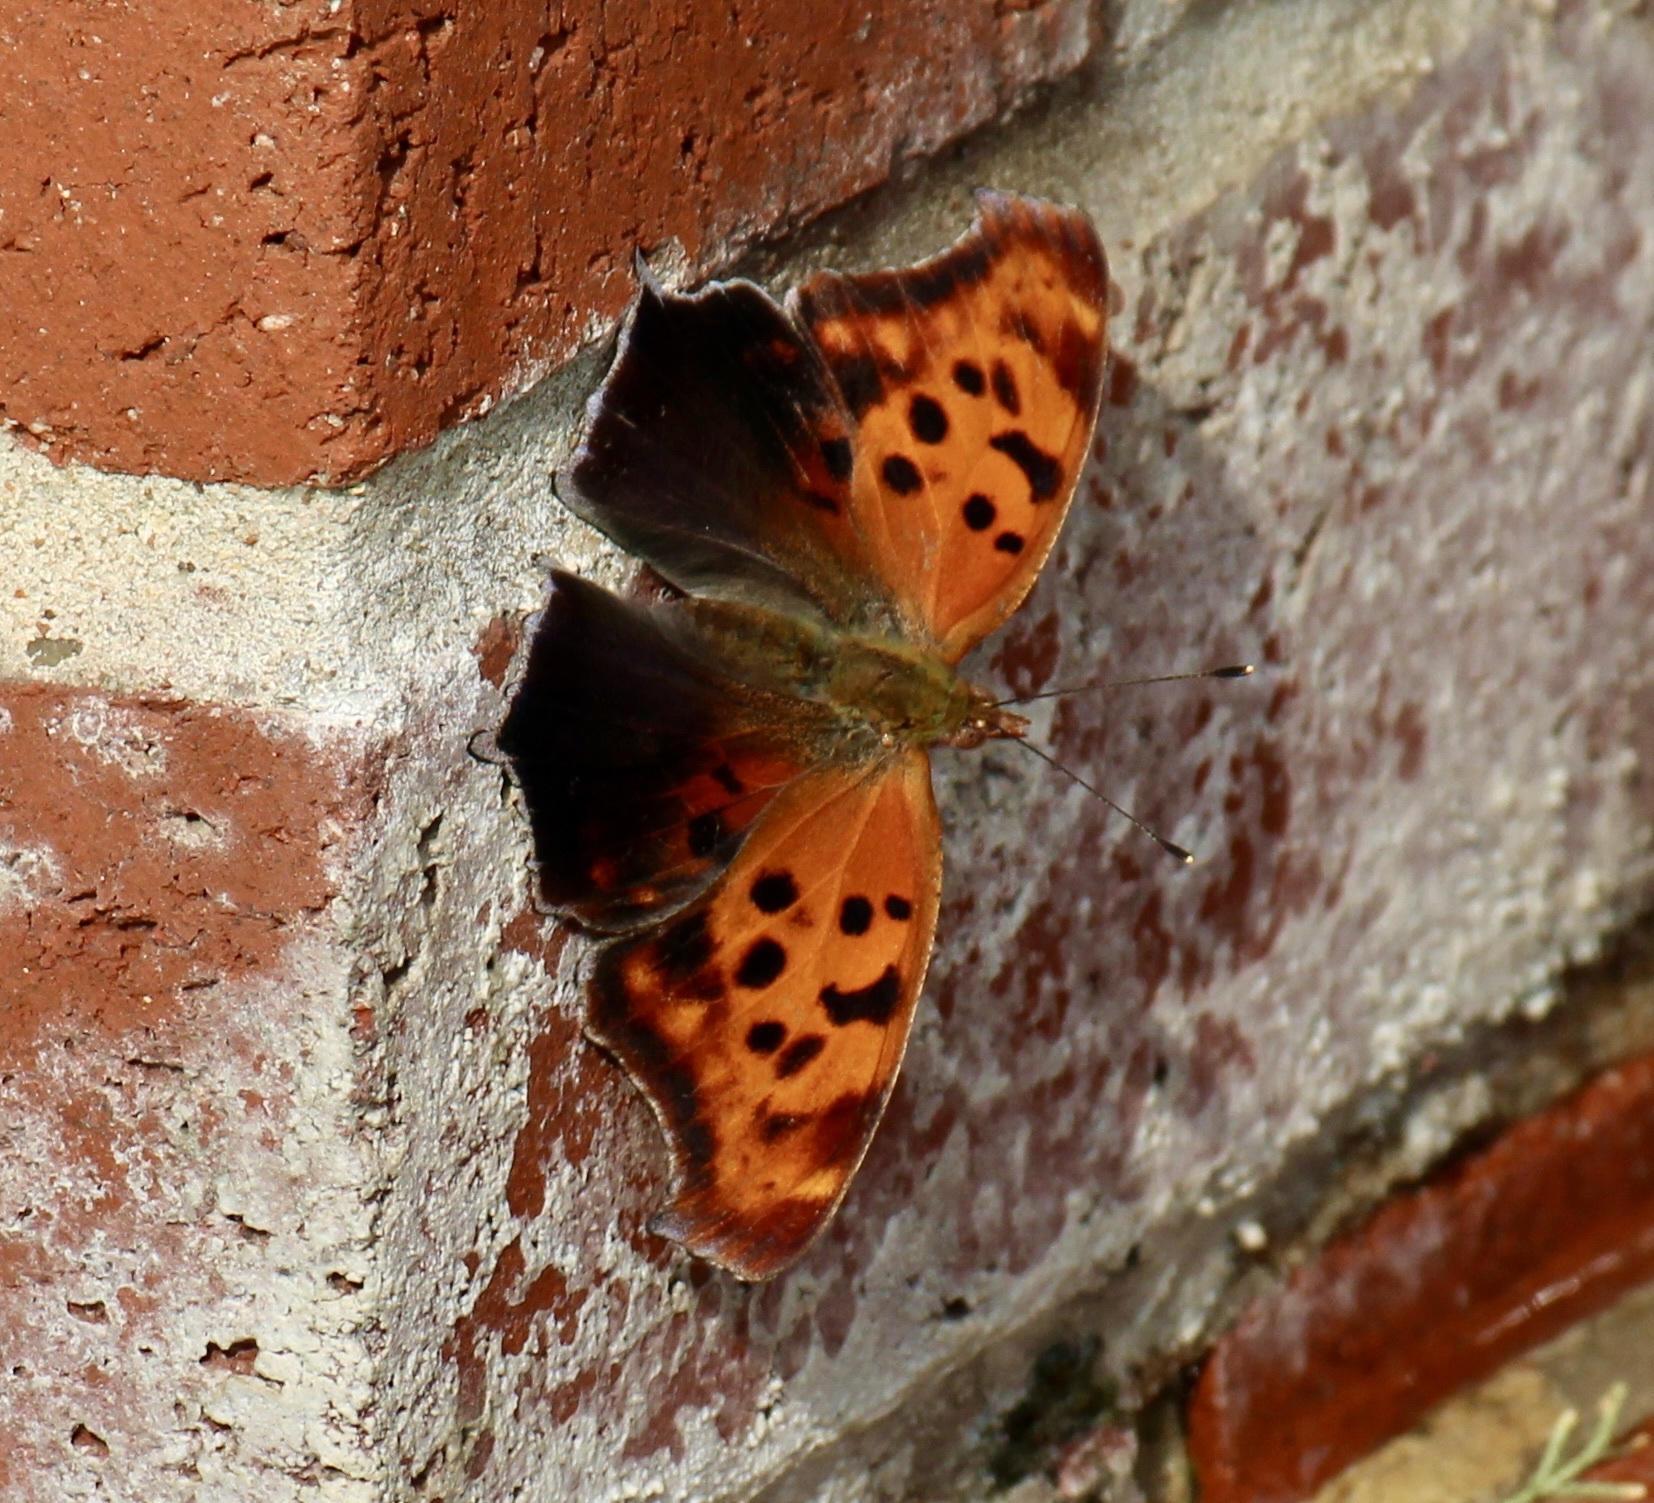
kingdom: Animalia
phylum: Arthropoda
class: Insecta
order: Lepidoptera
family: Nymphalidae
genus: Polygonia
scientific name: Polygonia interrogationis
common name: Question mark
